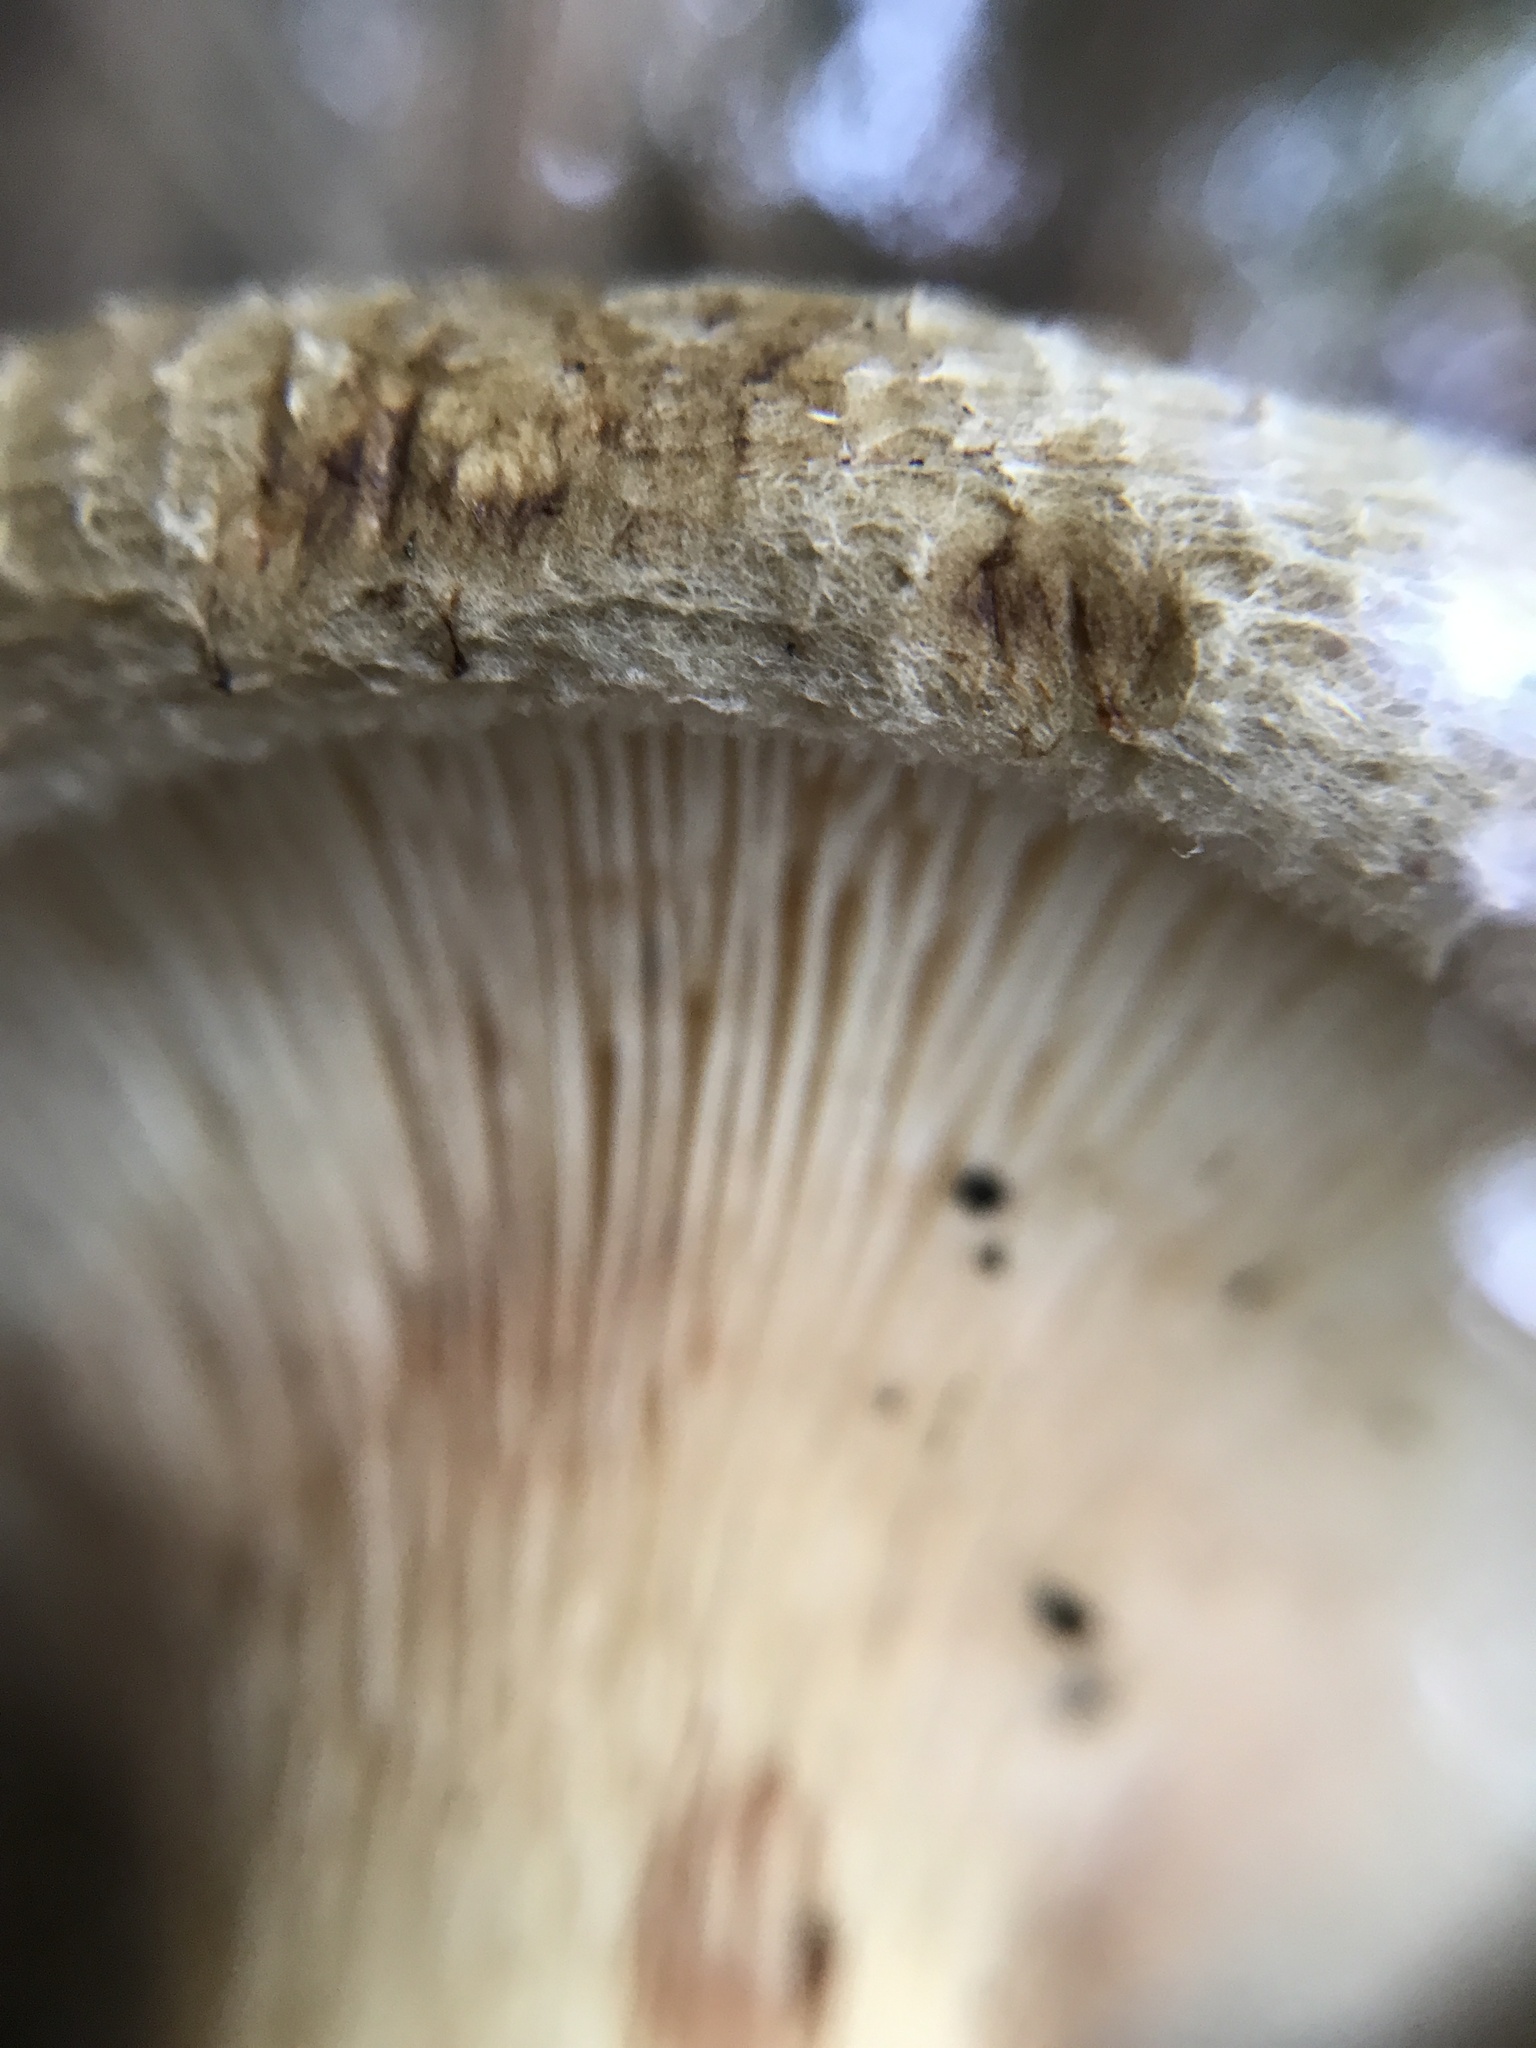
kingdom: Fungi
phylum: Basidiomycota
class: Agaricomycetes
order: Boletales
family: Paxillaceae
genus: Paxillus
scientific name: Paxillus involutus
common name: Brown roll rim
